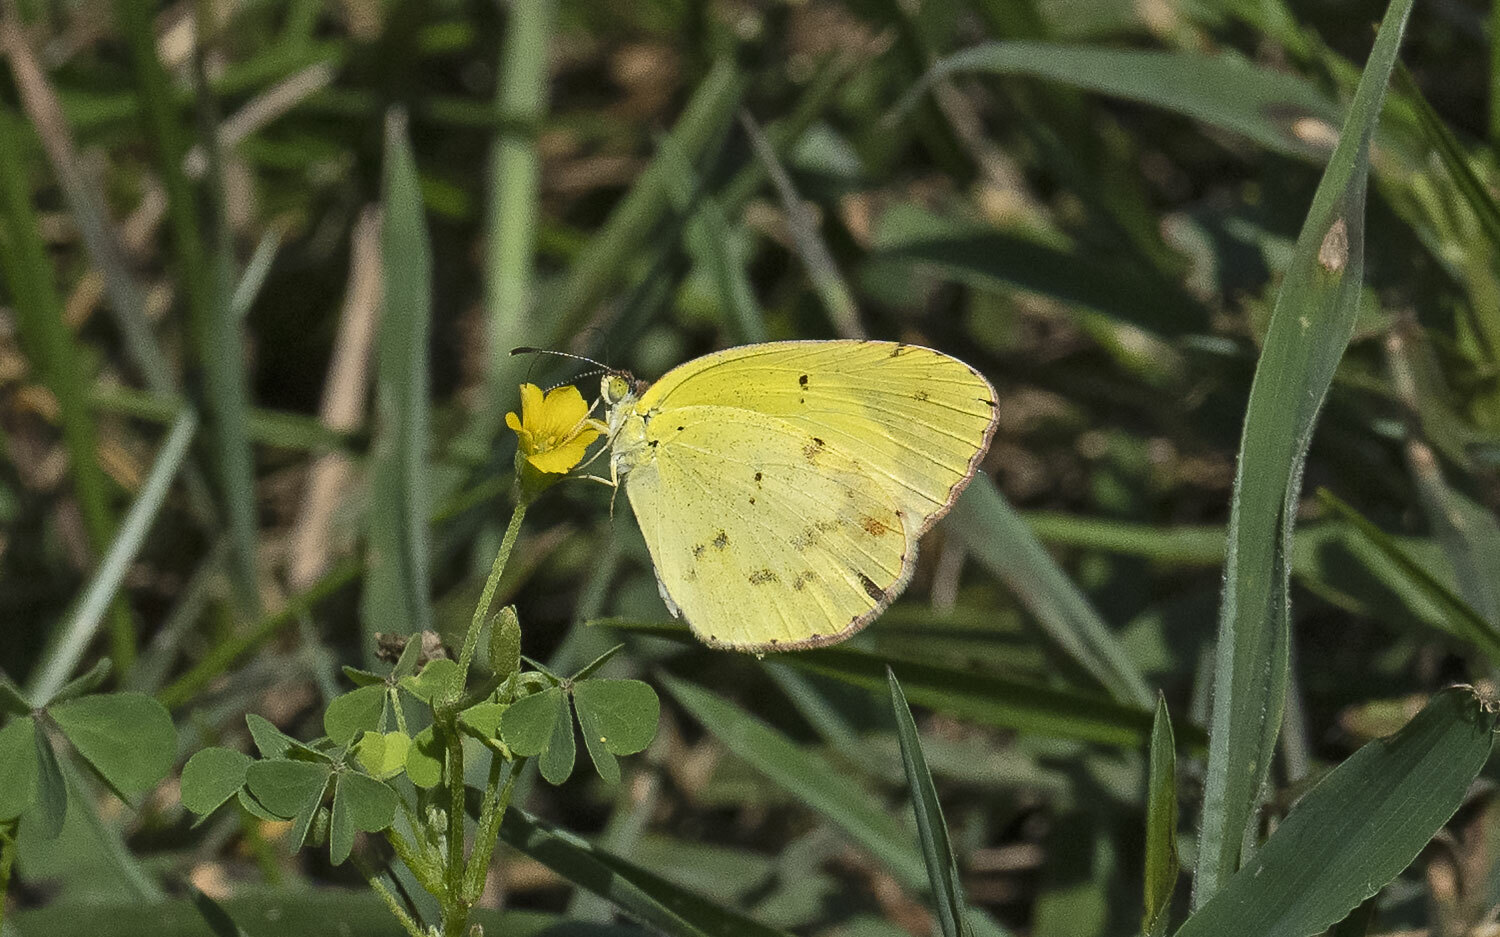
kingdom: Animalia
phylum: Arthropoda
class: Insecta
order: Lepidoptera
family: Pieridae
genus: Pyrisitia
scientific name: Pyrisitia lisa
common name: Little yellow
